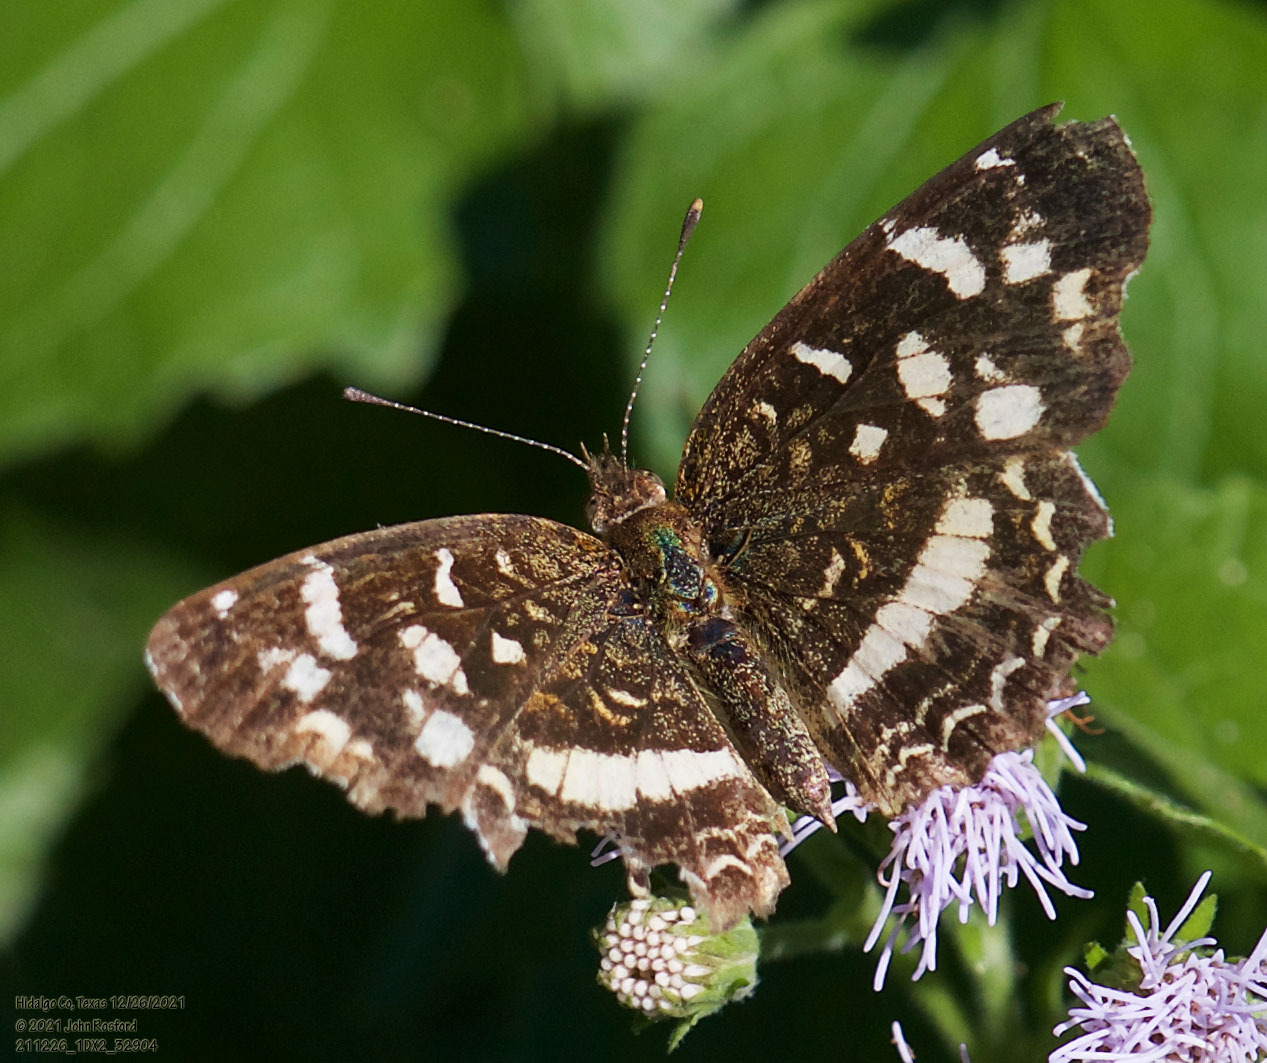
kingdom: Animalia
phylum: Arthropoda
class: Insecta
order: Lepidoptera
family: Nymphalidae
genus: Anthanassa
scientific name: Anthanassa tulcis
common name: Pale-banded crescent
